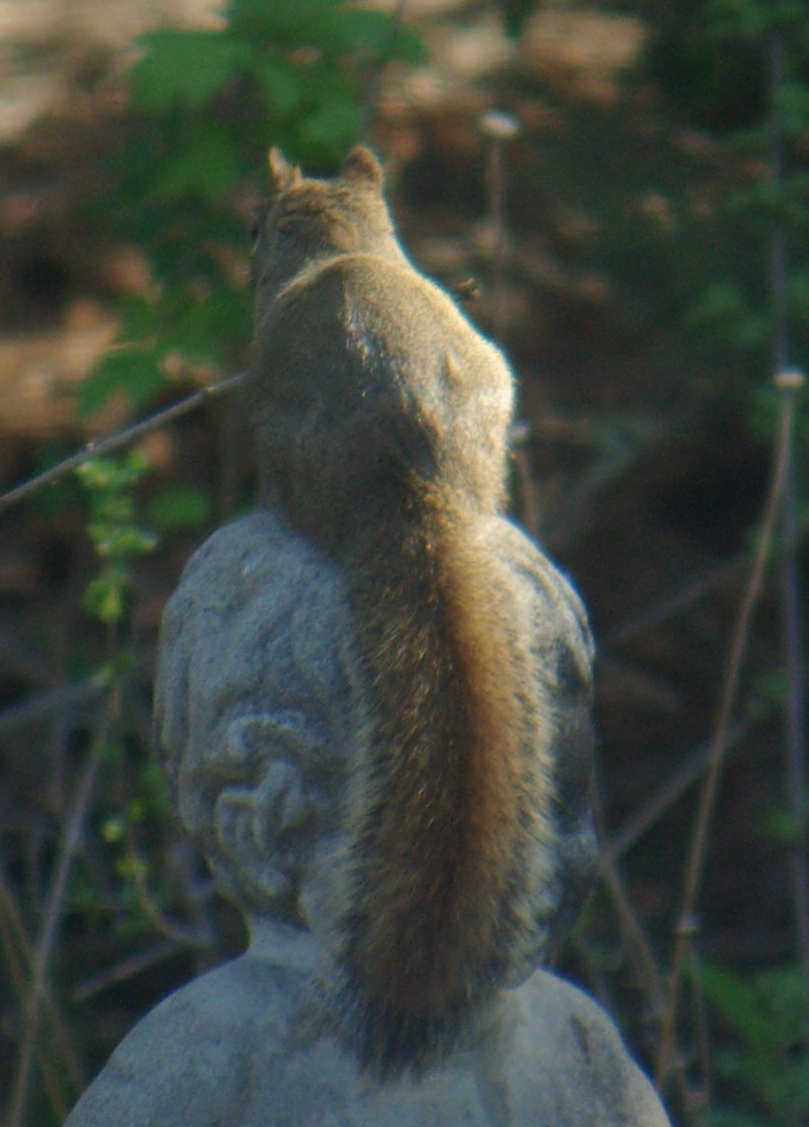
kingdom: Animalia
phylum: Chordata
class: Mammalia
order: Rodentia
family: Sciuridae
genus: Tamiasciurus
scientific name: Tamiasciurus hudsonicus
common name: Red squirrel
